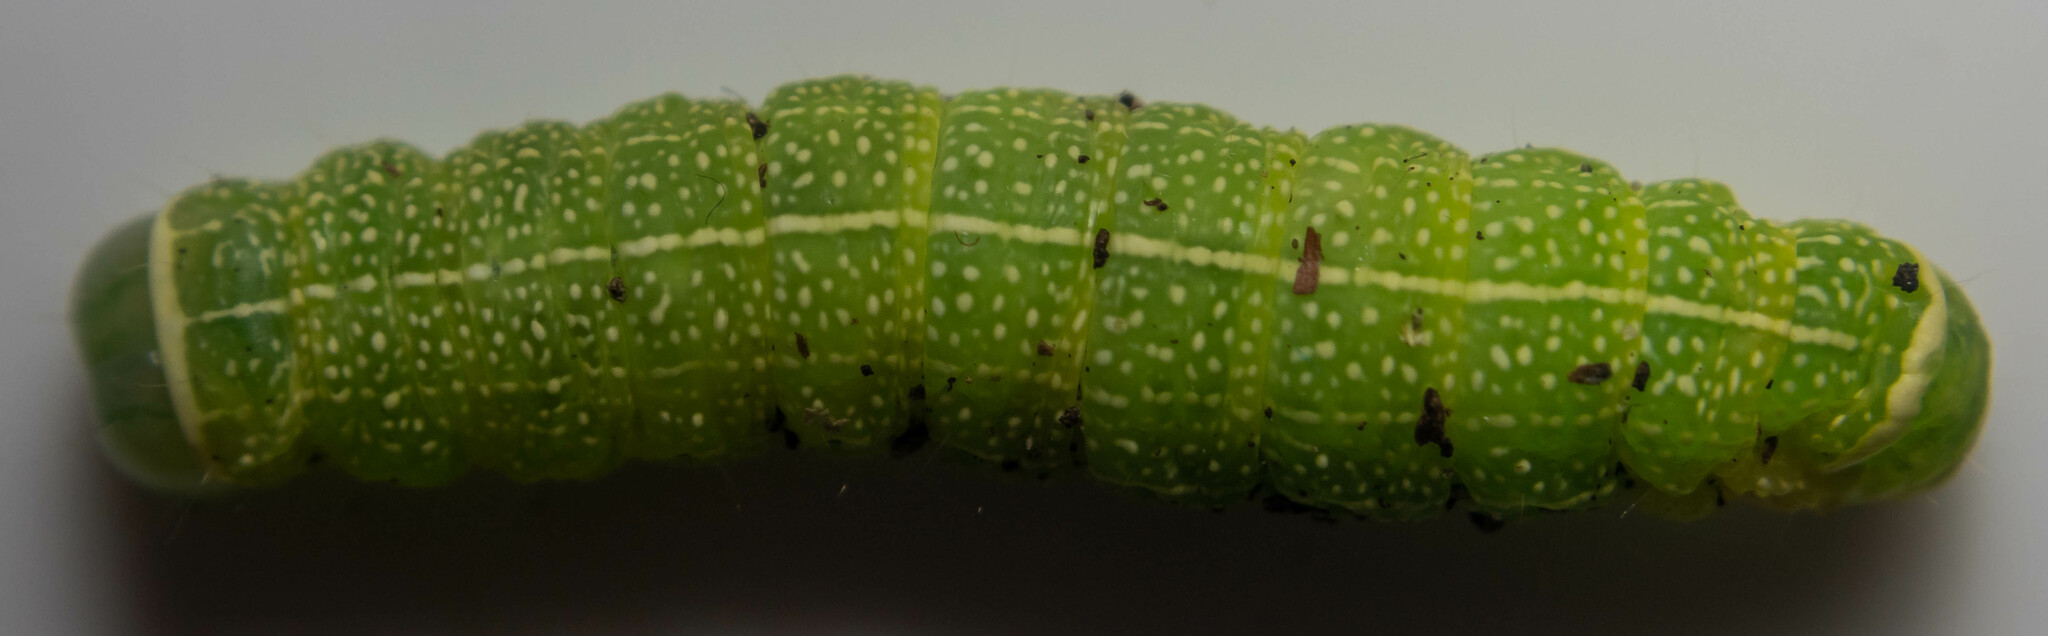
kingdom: Animalia
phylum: Arthropoda
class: Insecta
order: Lepidoptera
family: Noctuidae
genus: Orthosia
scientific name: Orthosia cerasi
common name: Common quaker
